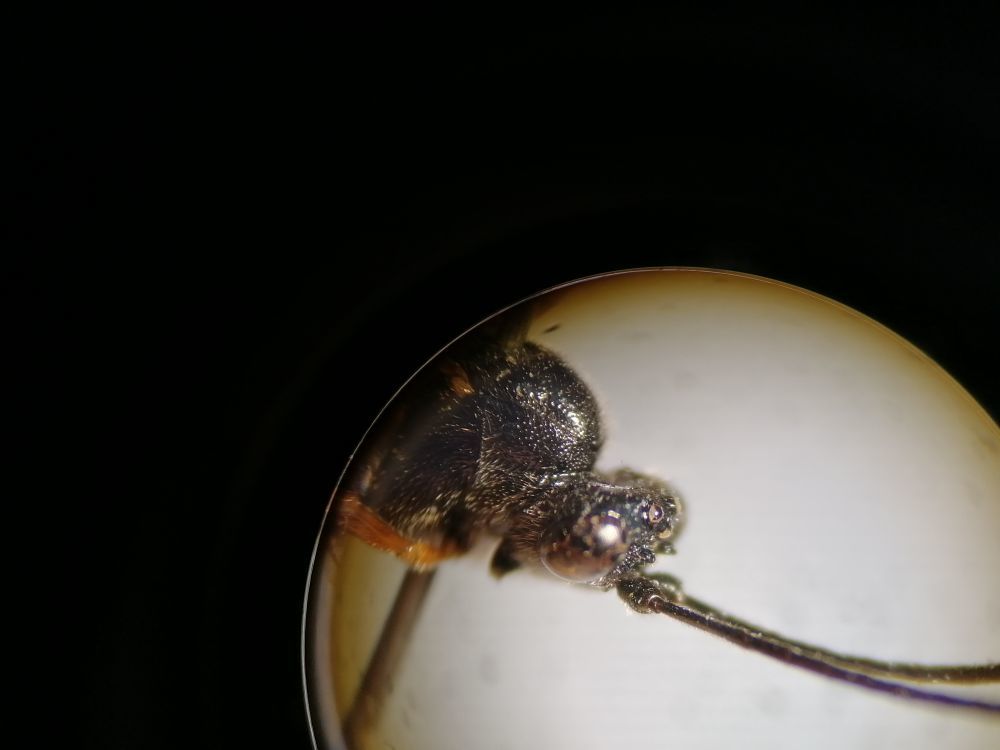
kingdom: Animalia
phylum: Arthropoda
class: Insecta
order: Hymenoptera
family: Ichneumonidae
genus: Glypta
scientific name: Glypta cylindrator
